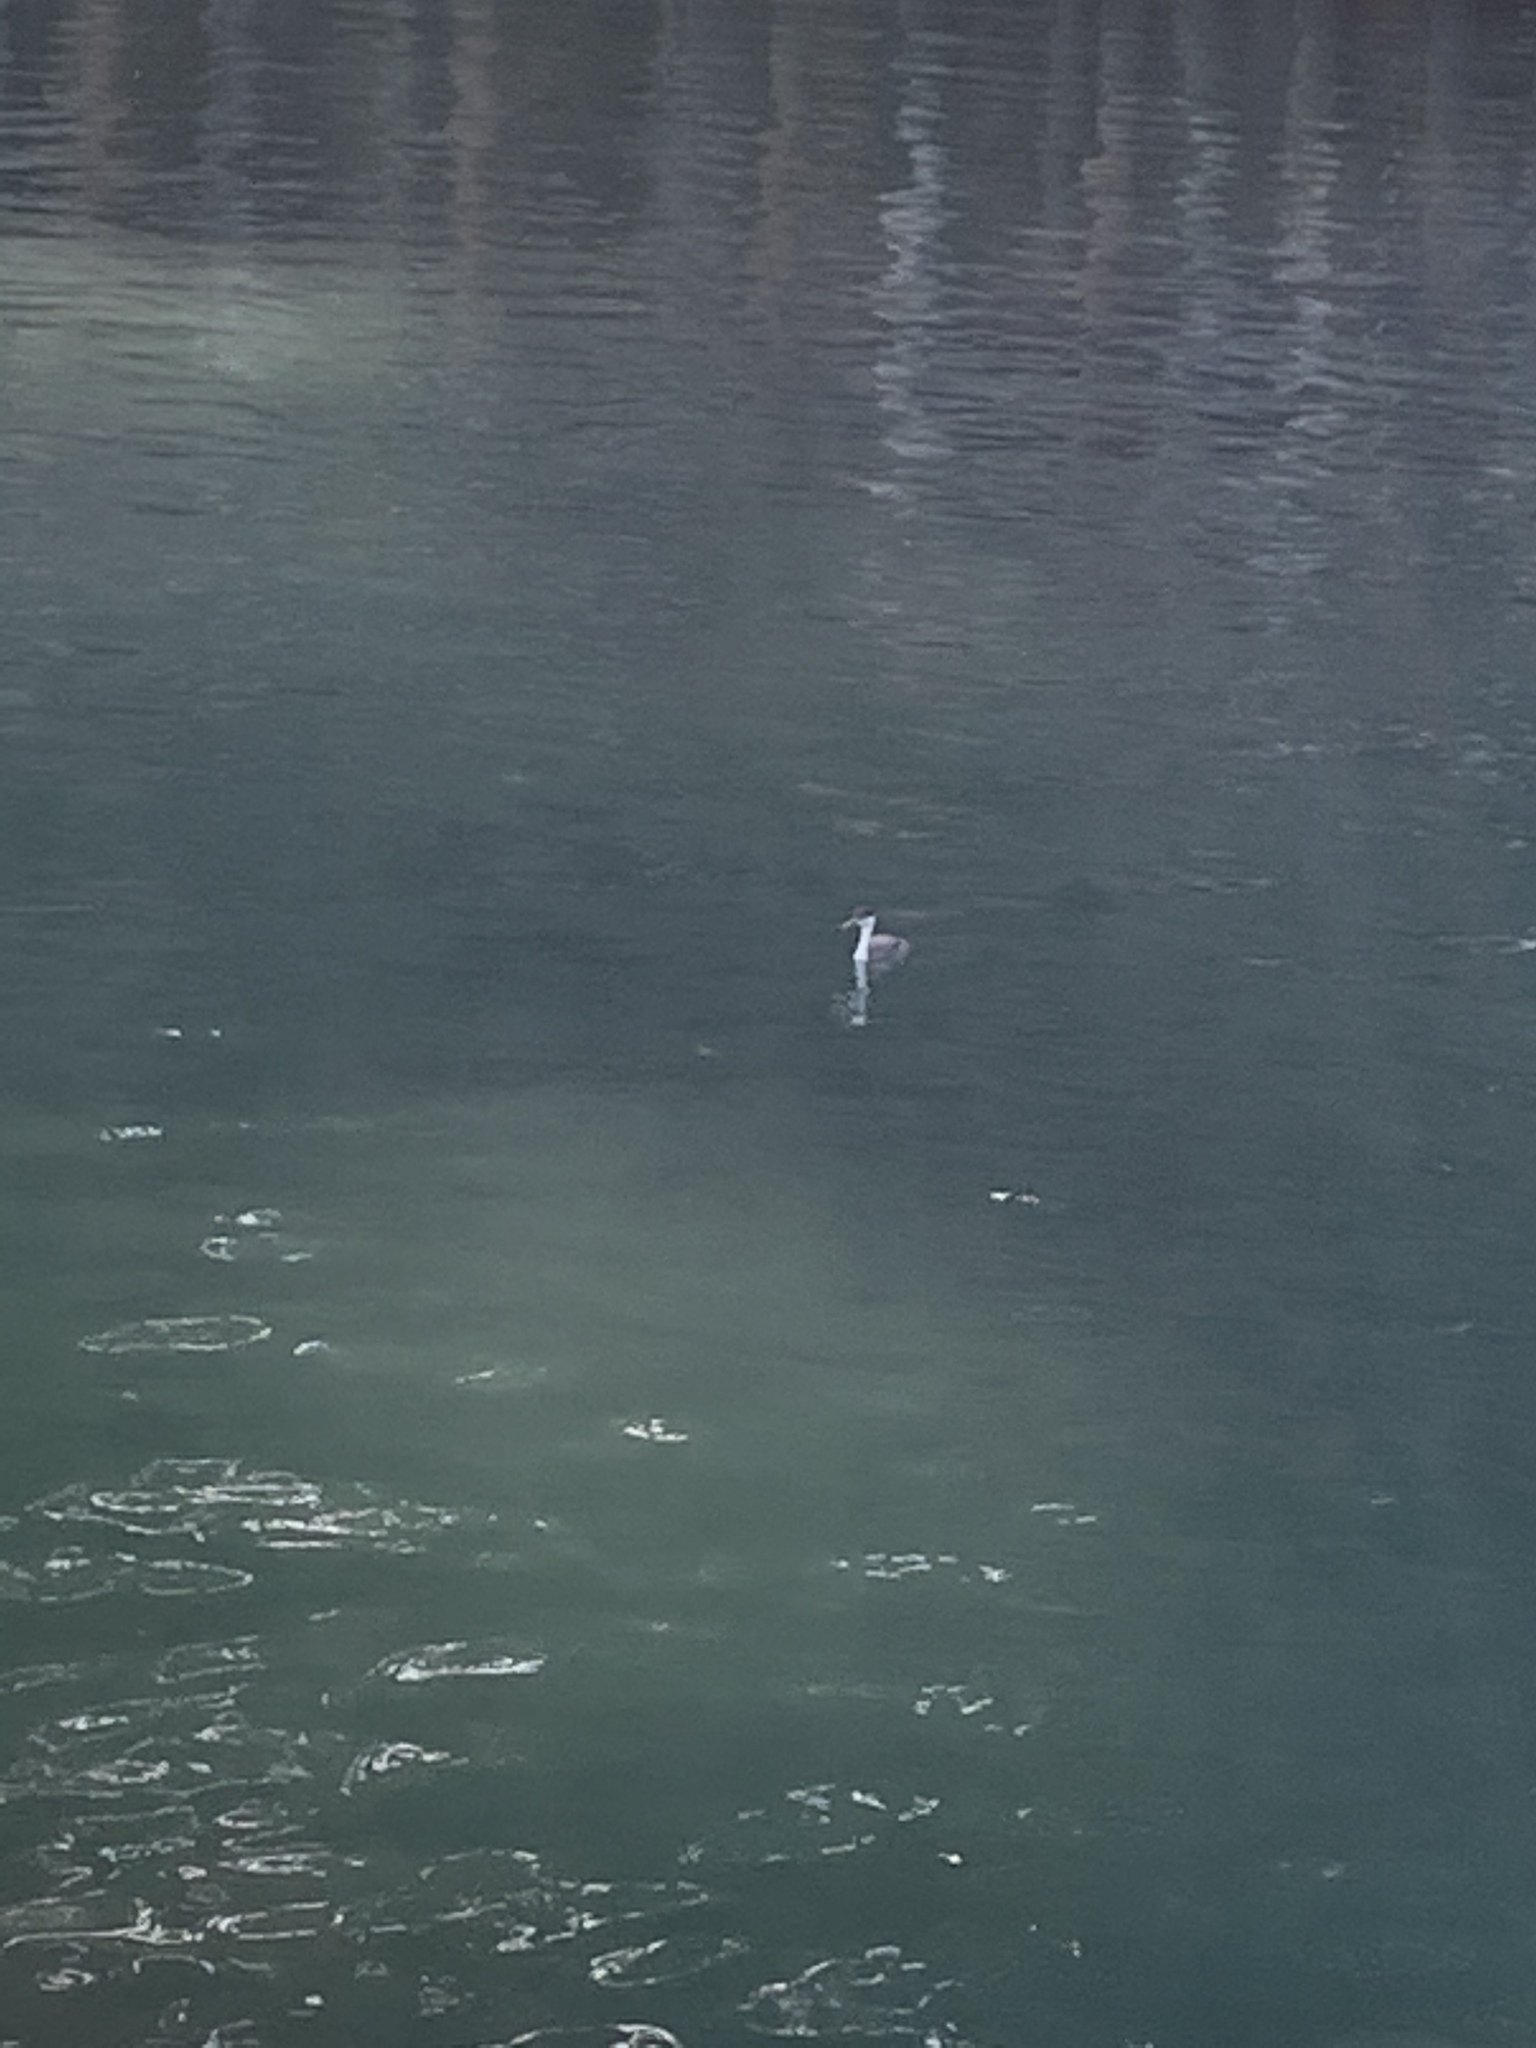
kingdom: Animalia
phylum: Chordata
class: Aves
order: Podicipediformes
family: Podicipedidae
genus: Aechmophorus
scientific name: Aechmophorus occidentalis
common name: Western grebe
